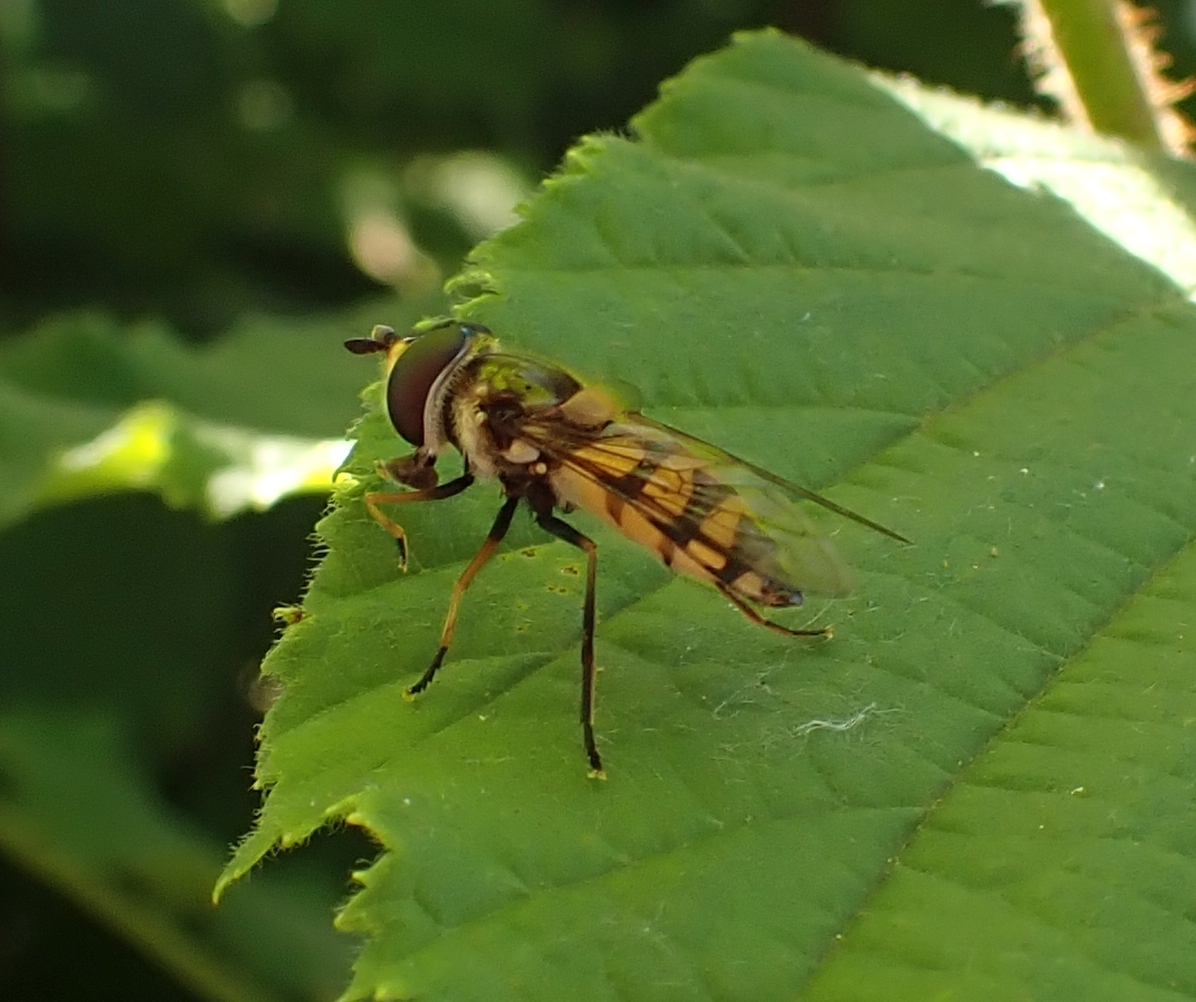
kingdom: Animalia
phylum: Arthropoda
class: Insecta
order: Diptera
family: Syrphidae
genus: Didea
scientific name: Didea fasciata
